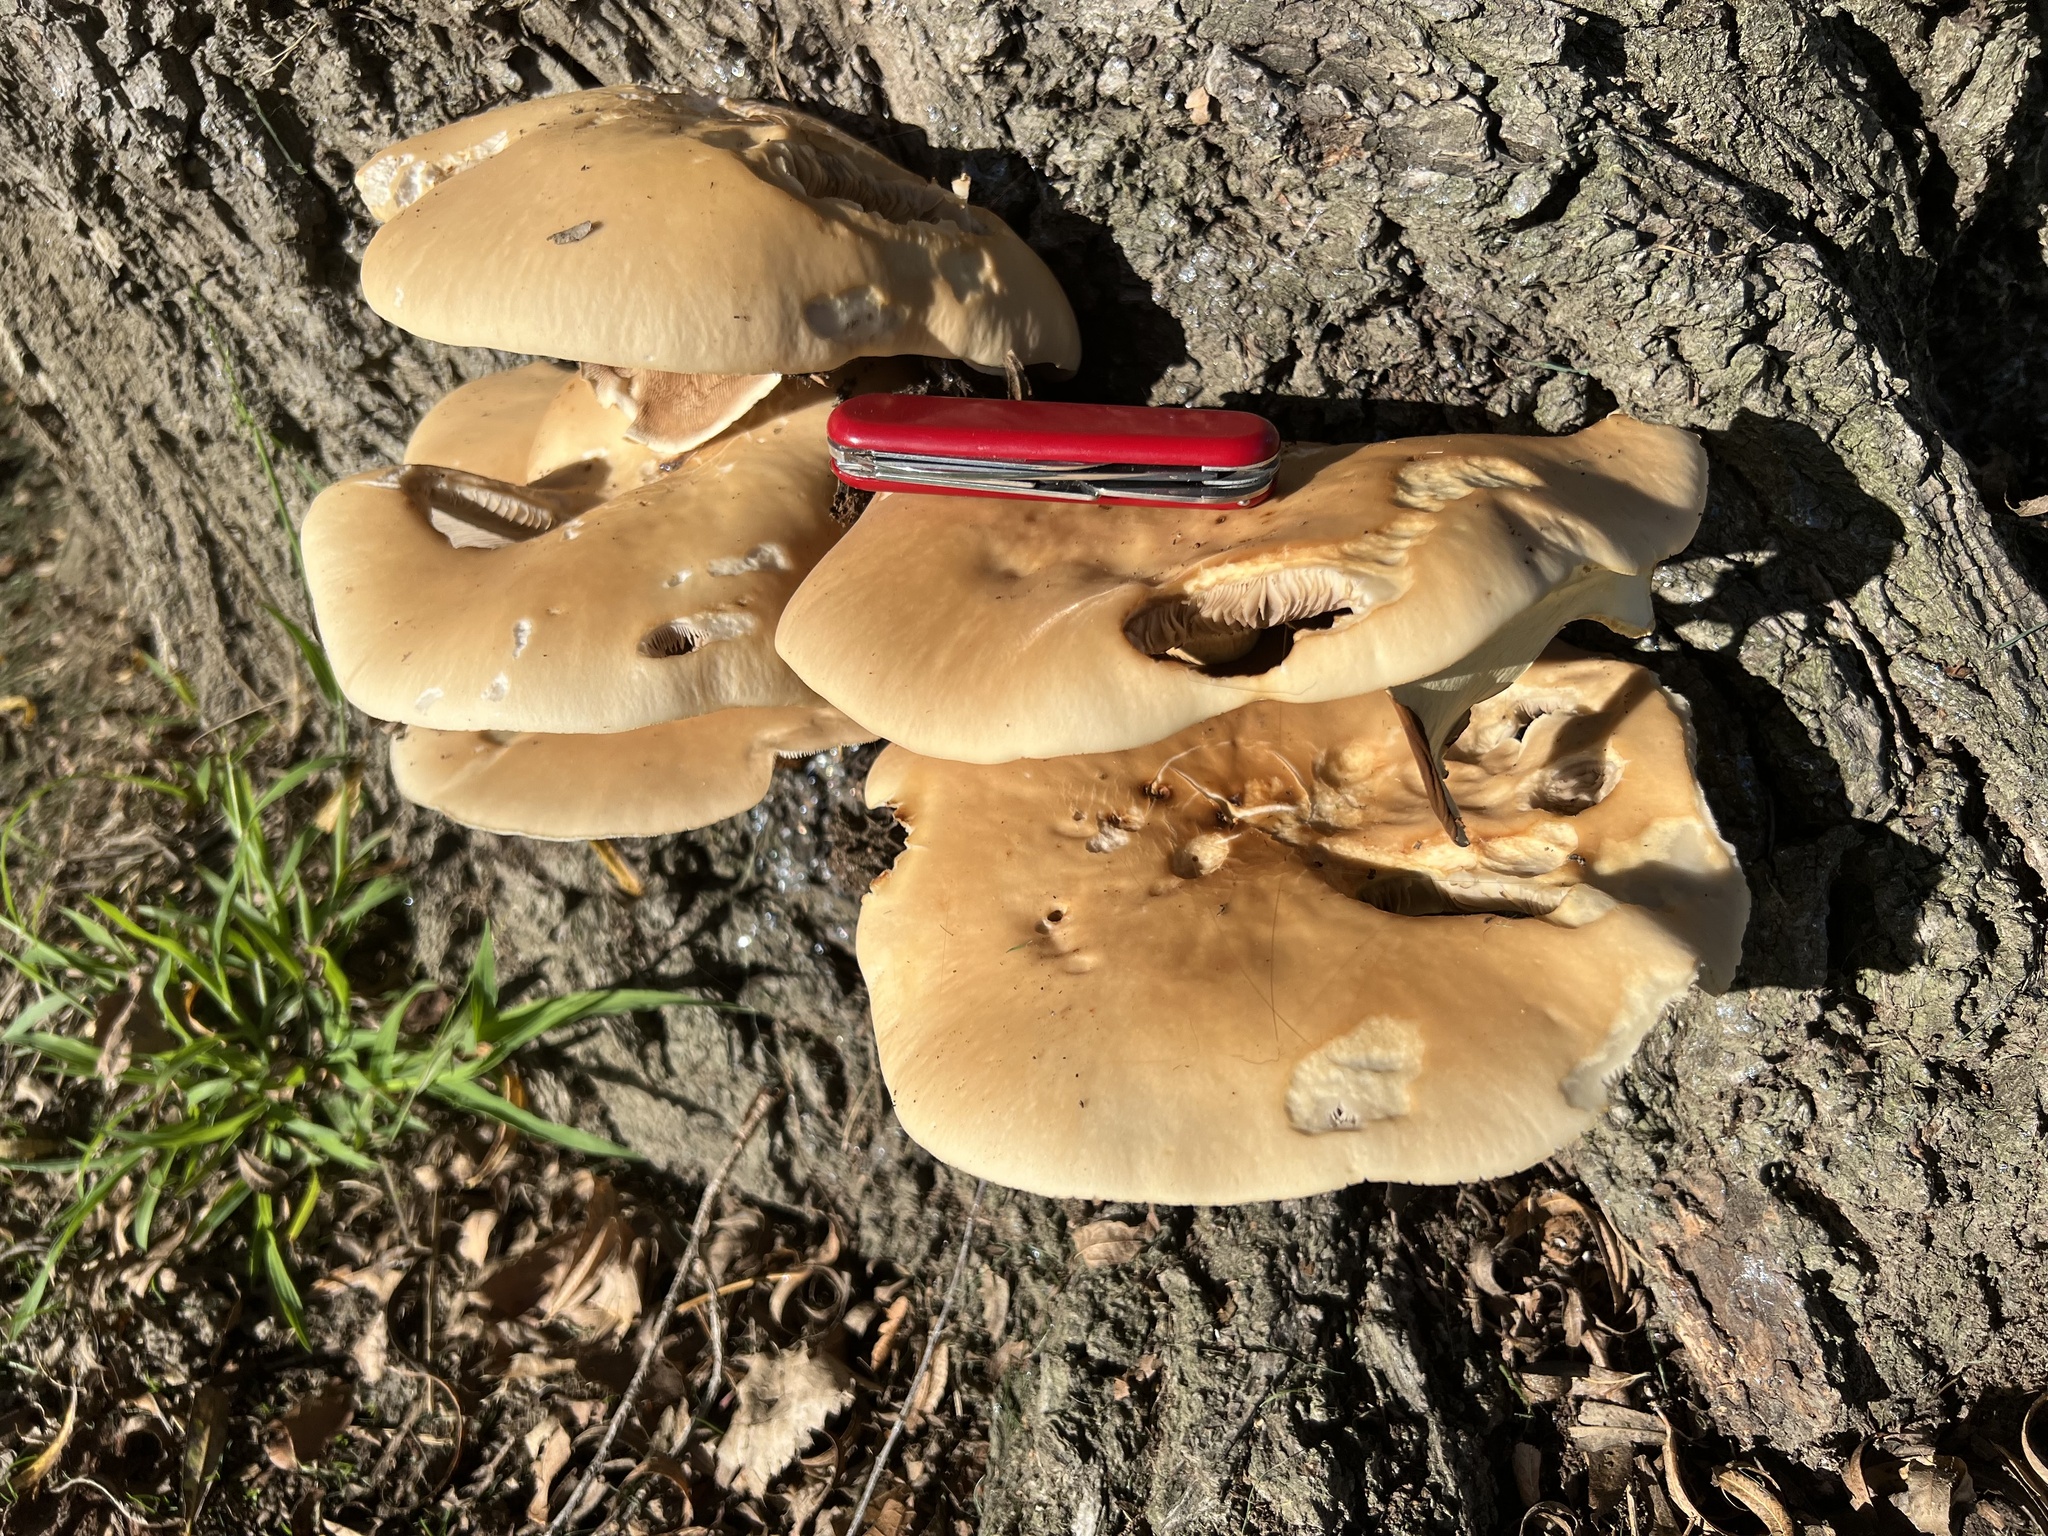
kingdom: Fungi
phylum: Basidiomycota
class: Agaricomycetes
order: Agaricales
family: Tubariaceae
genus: Cyclocybe
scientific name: Cyclocybe parasitica
